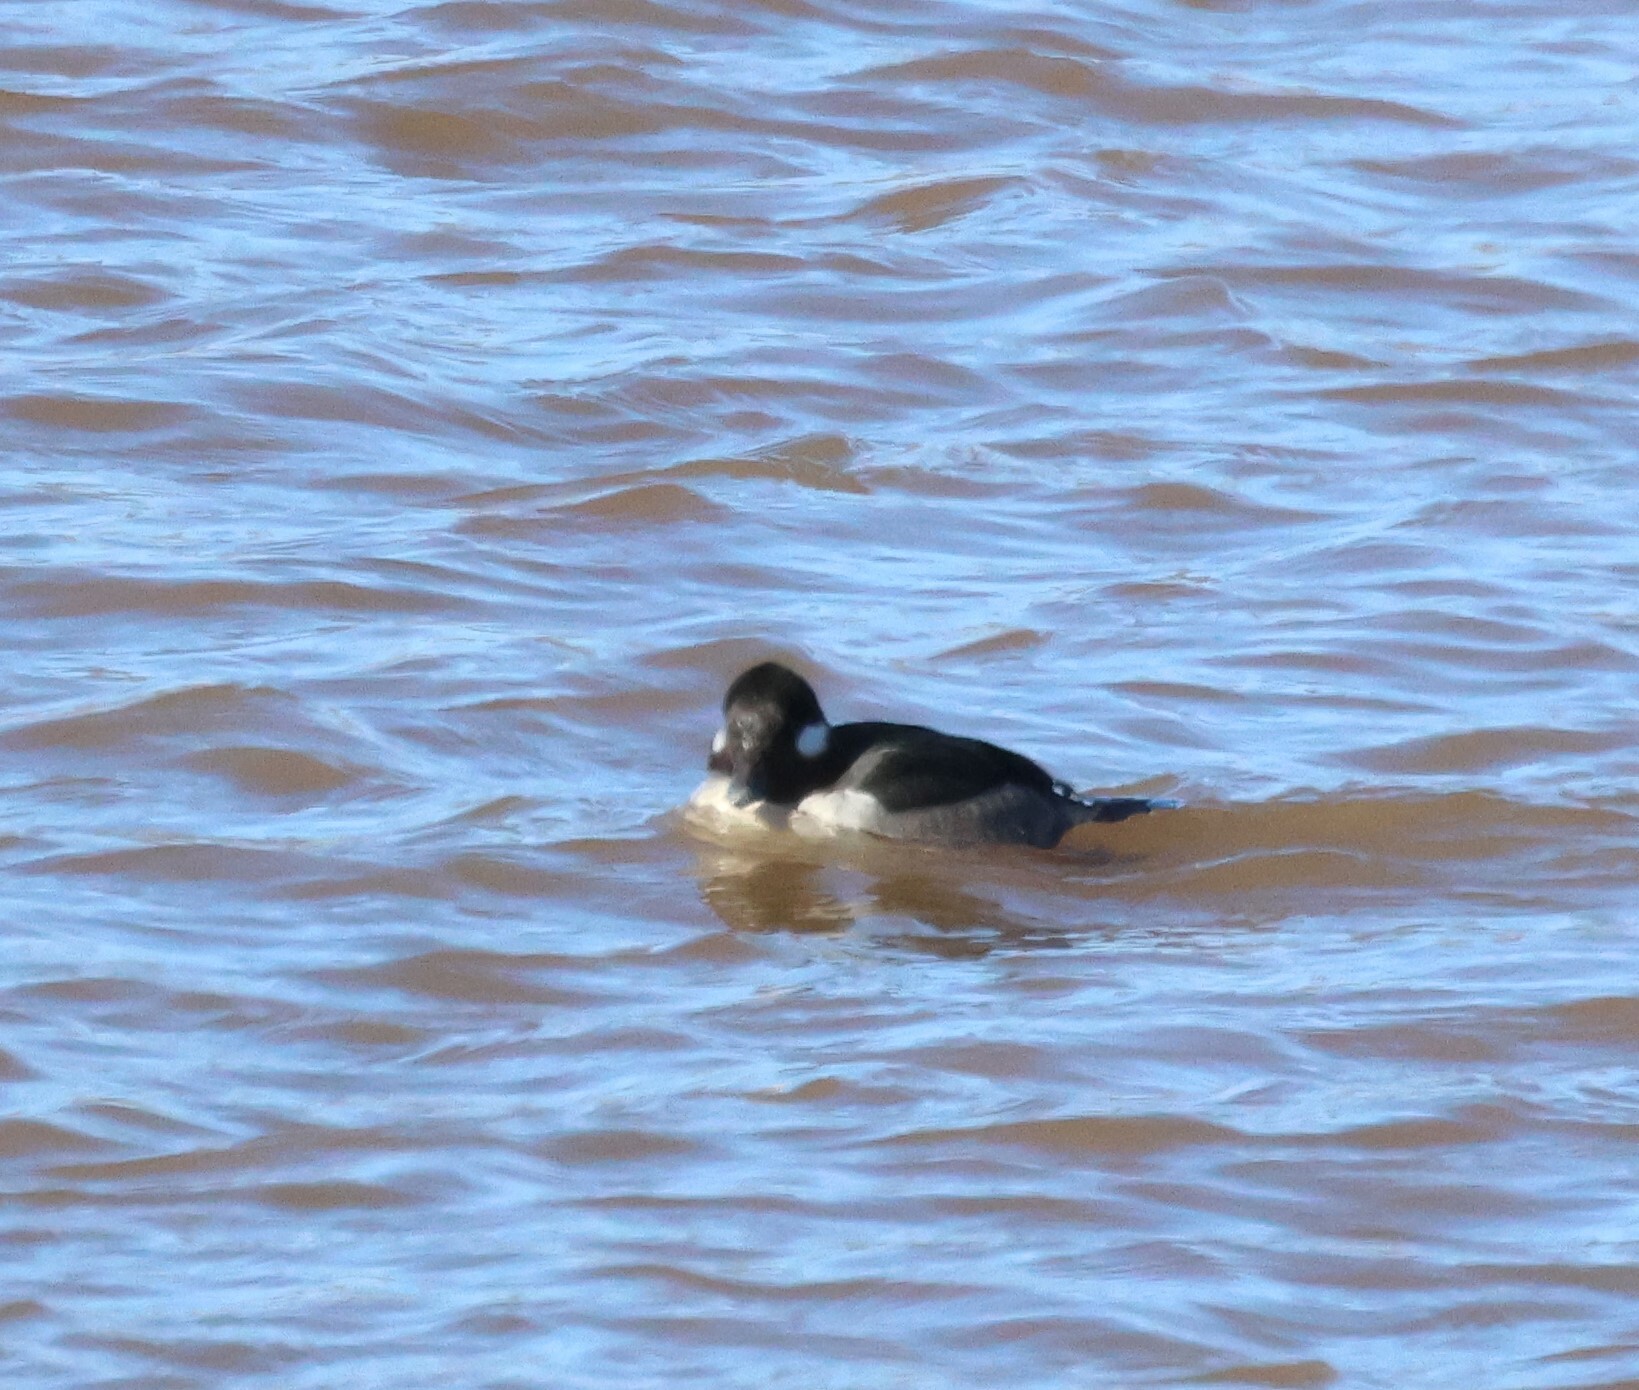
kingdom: Animalia
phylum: Chordata
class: Aves
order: Anseriformes
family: Anatidae
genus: Bucephala
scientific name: Bucephala albeola
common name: Bufflehead
